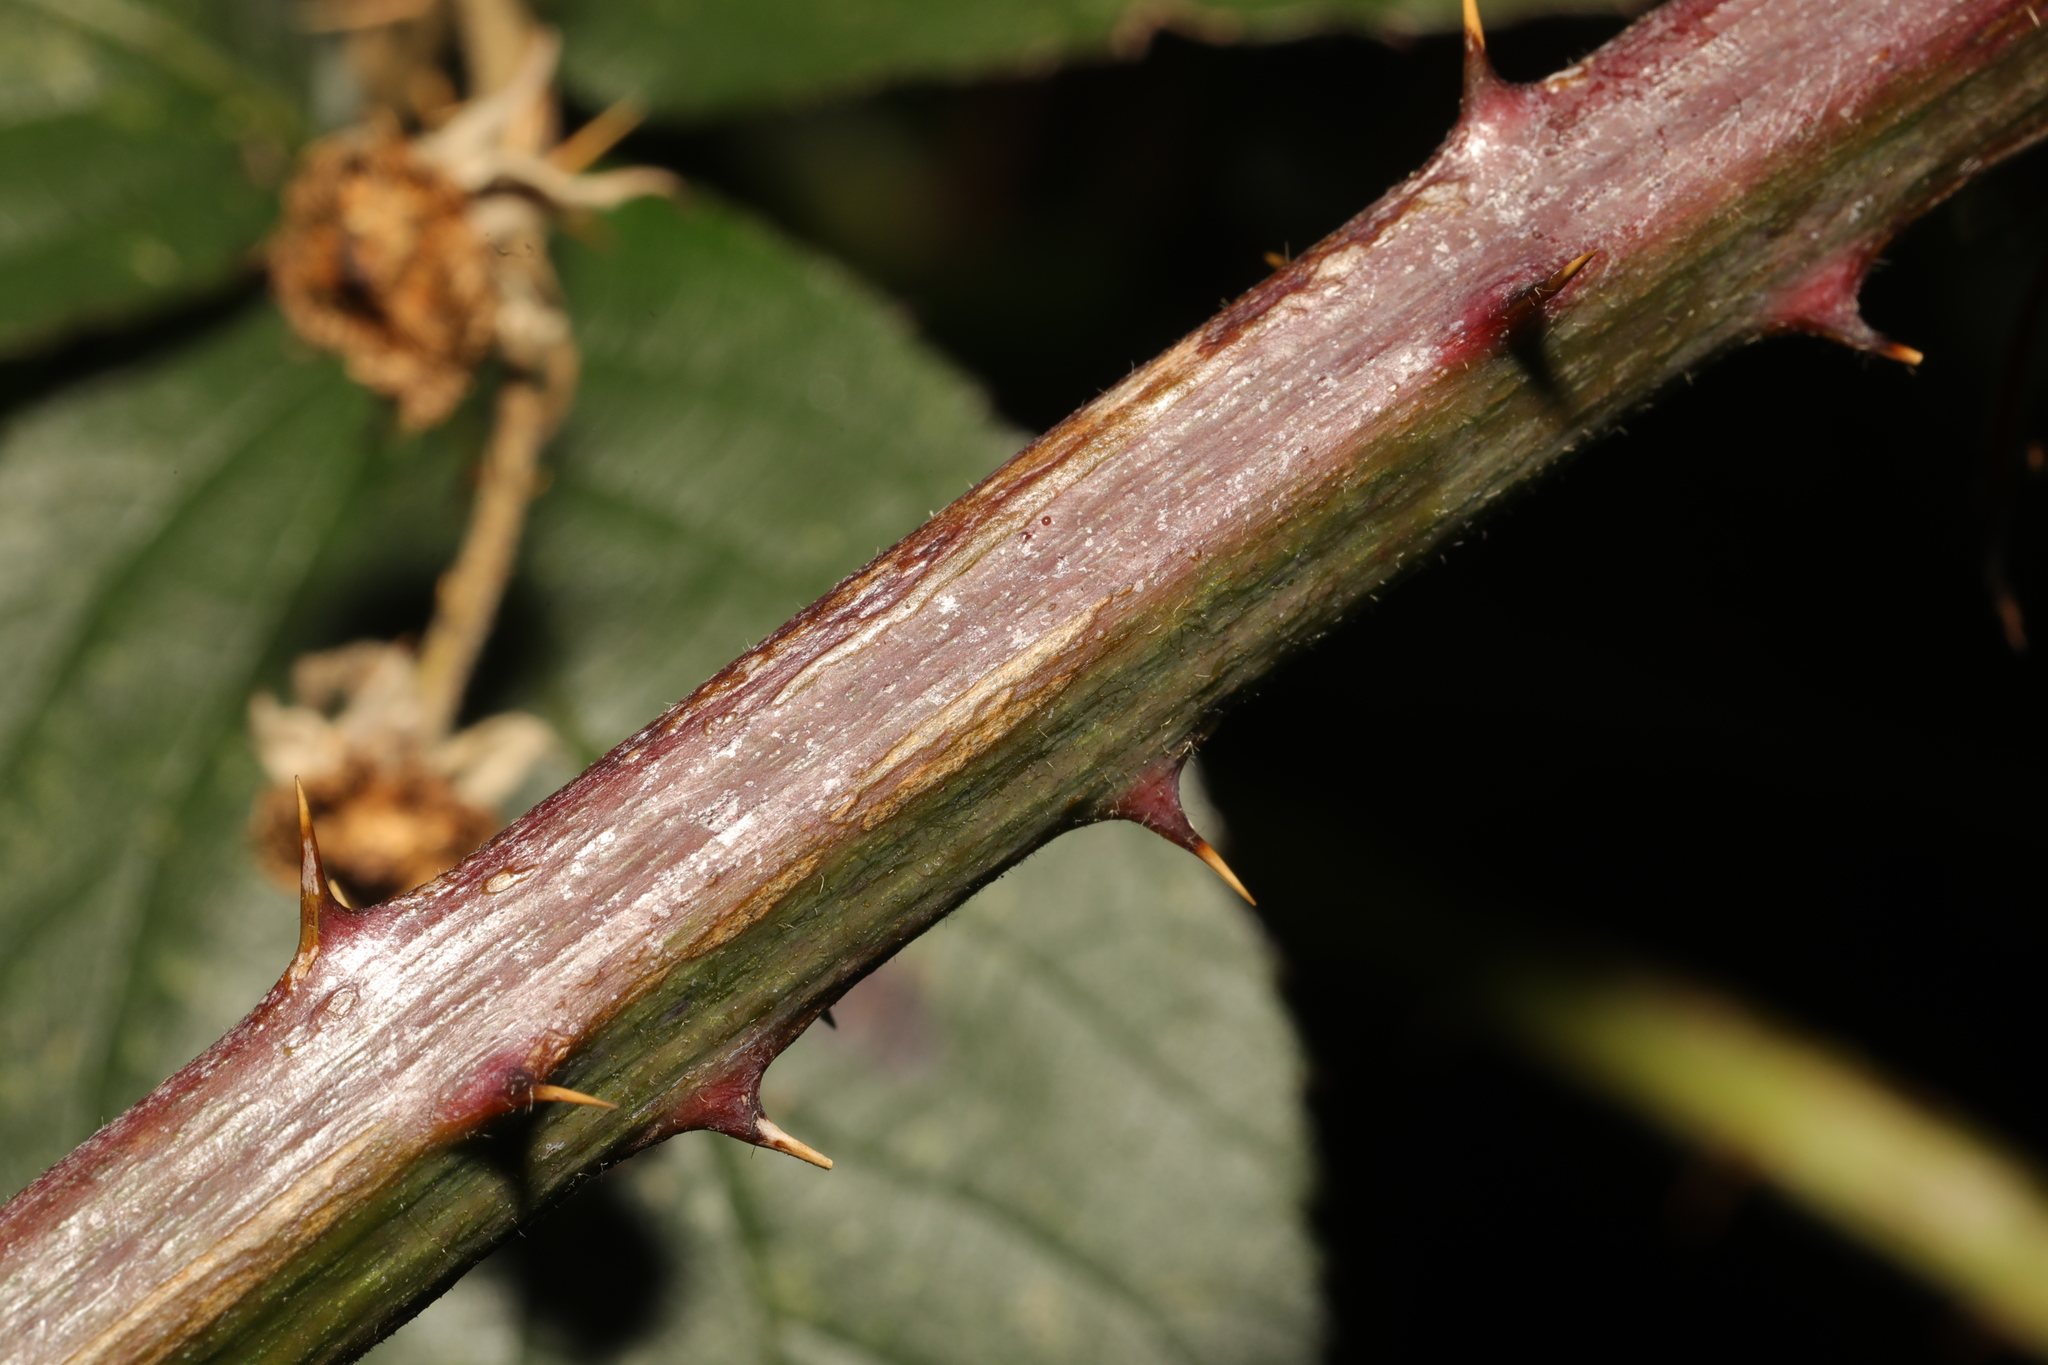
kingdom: Plantae
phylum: Tracheophyta
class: Magnoliopsida
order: Rosales
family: Rosaceae
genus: Rubus
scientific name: Rubus armeniacus
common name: Himalayan blackberry
